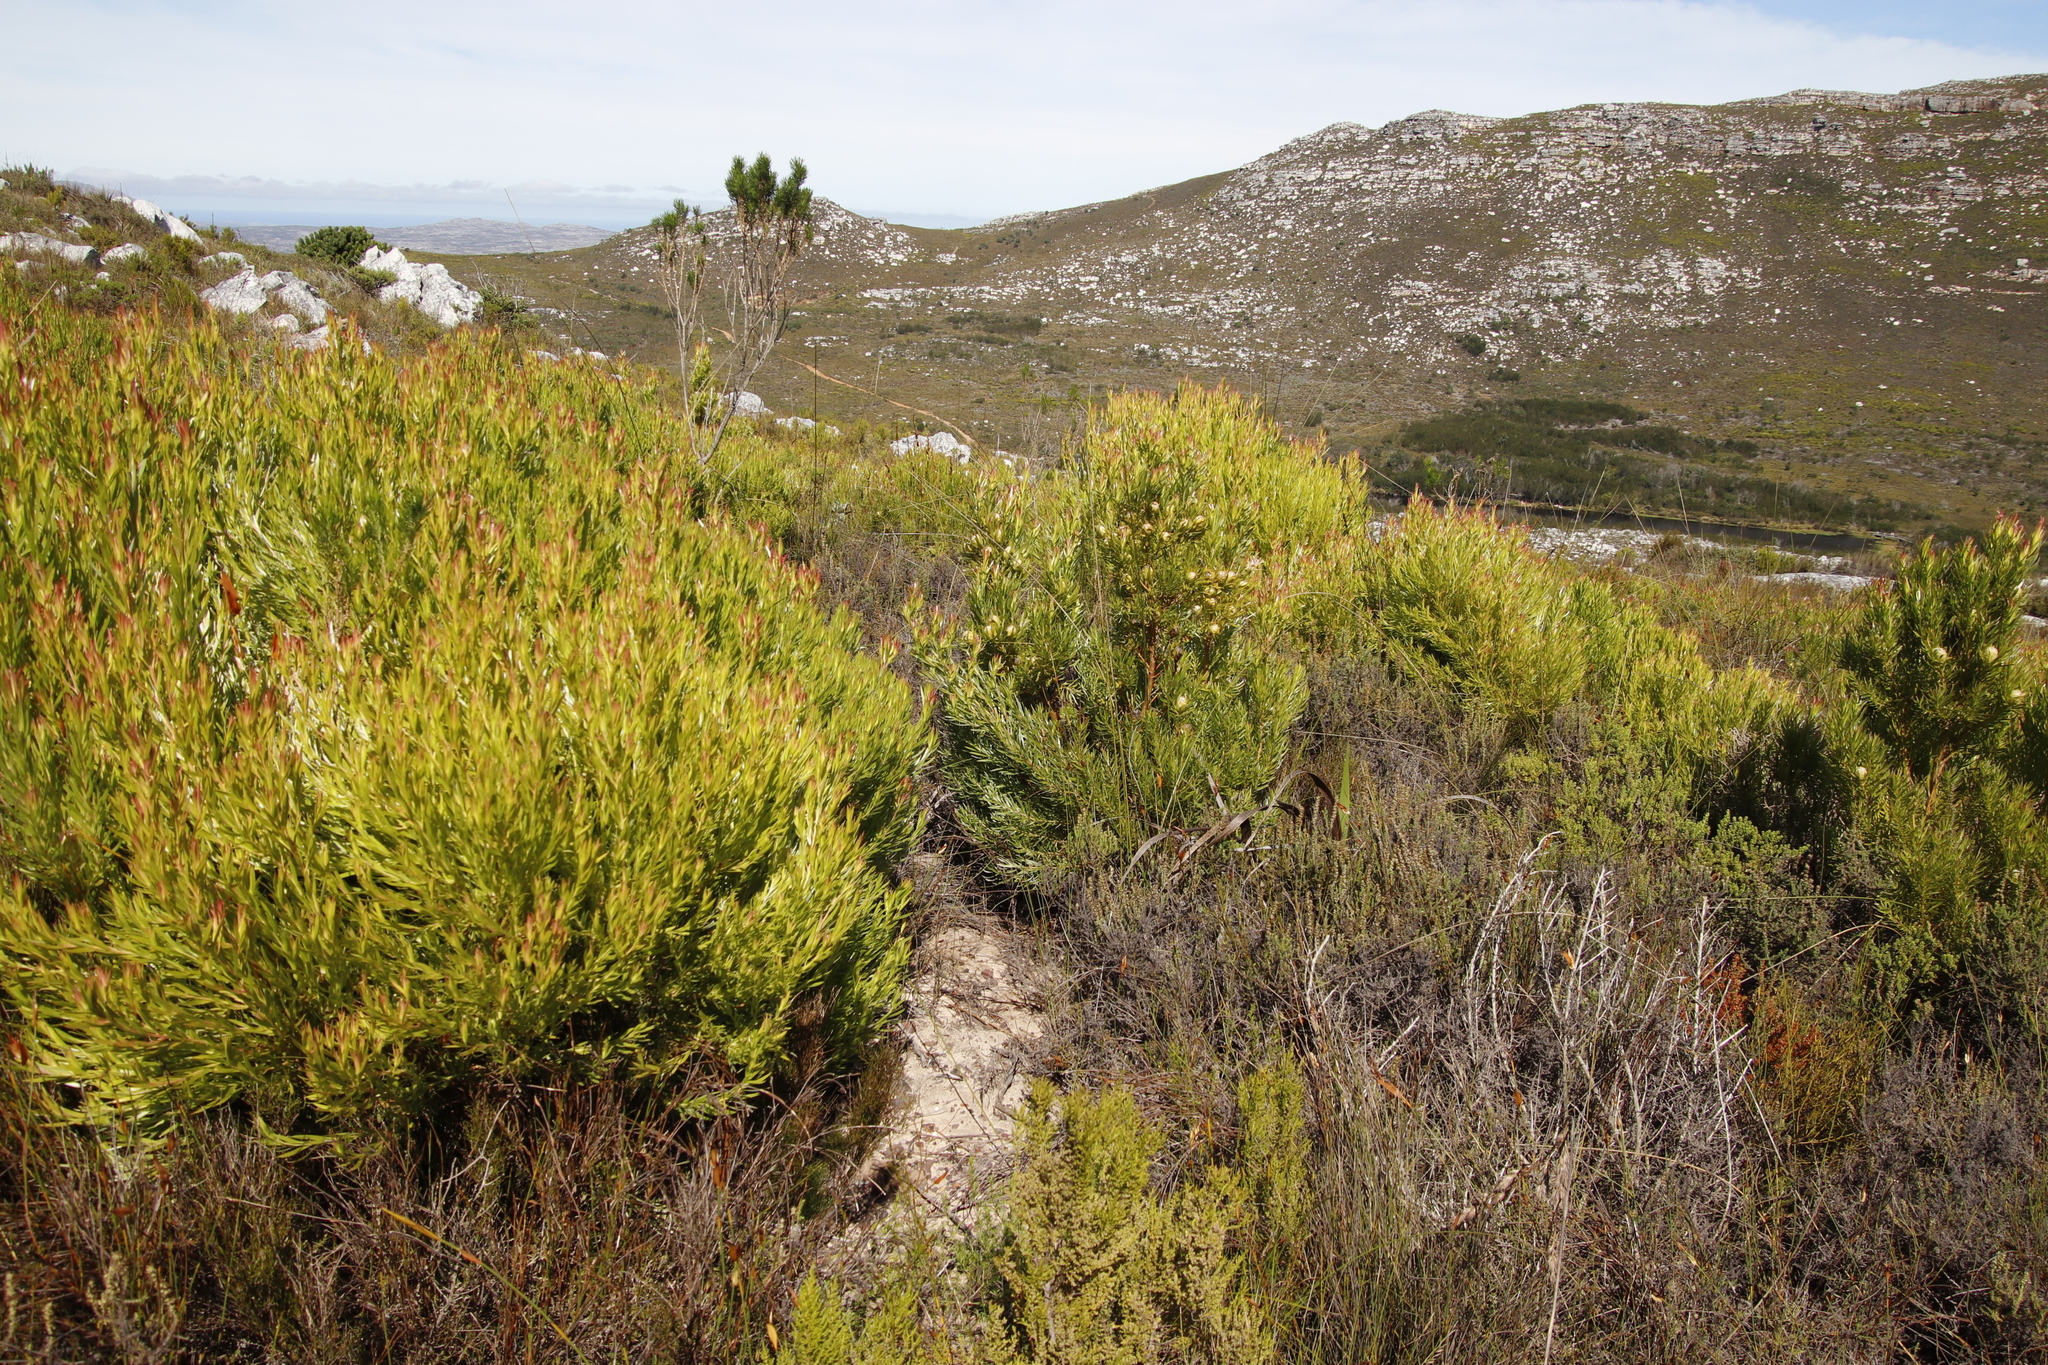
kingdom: Plantae
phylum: Tracheophyta
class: Magnoliopsida
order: Proteales
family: Proteaceae
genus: Leucadendron
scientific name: Leucadendron xanthoconus
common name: Sickle-leaf conebush
